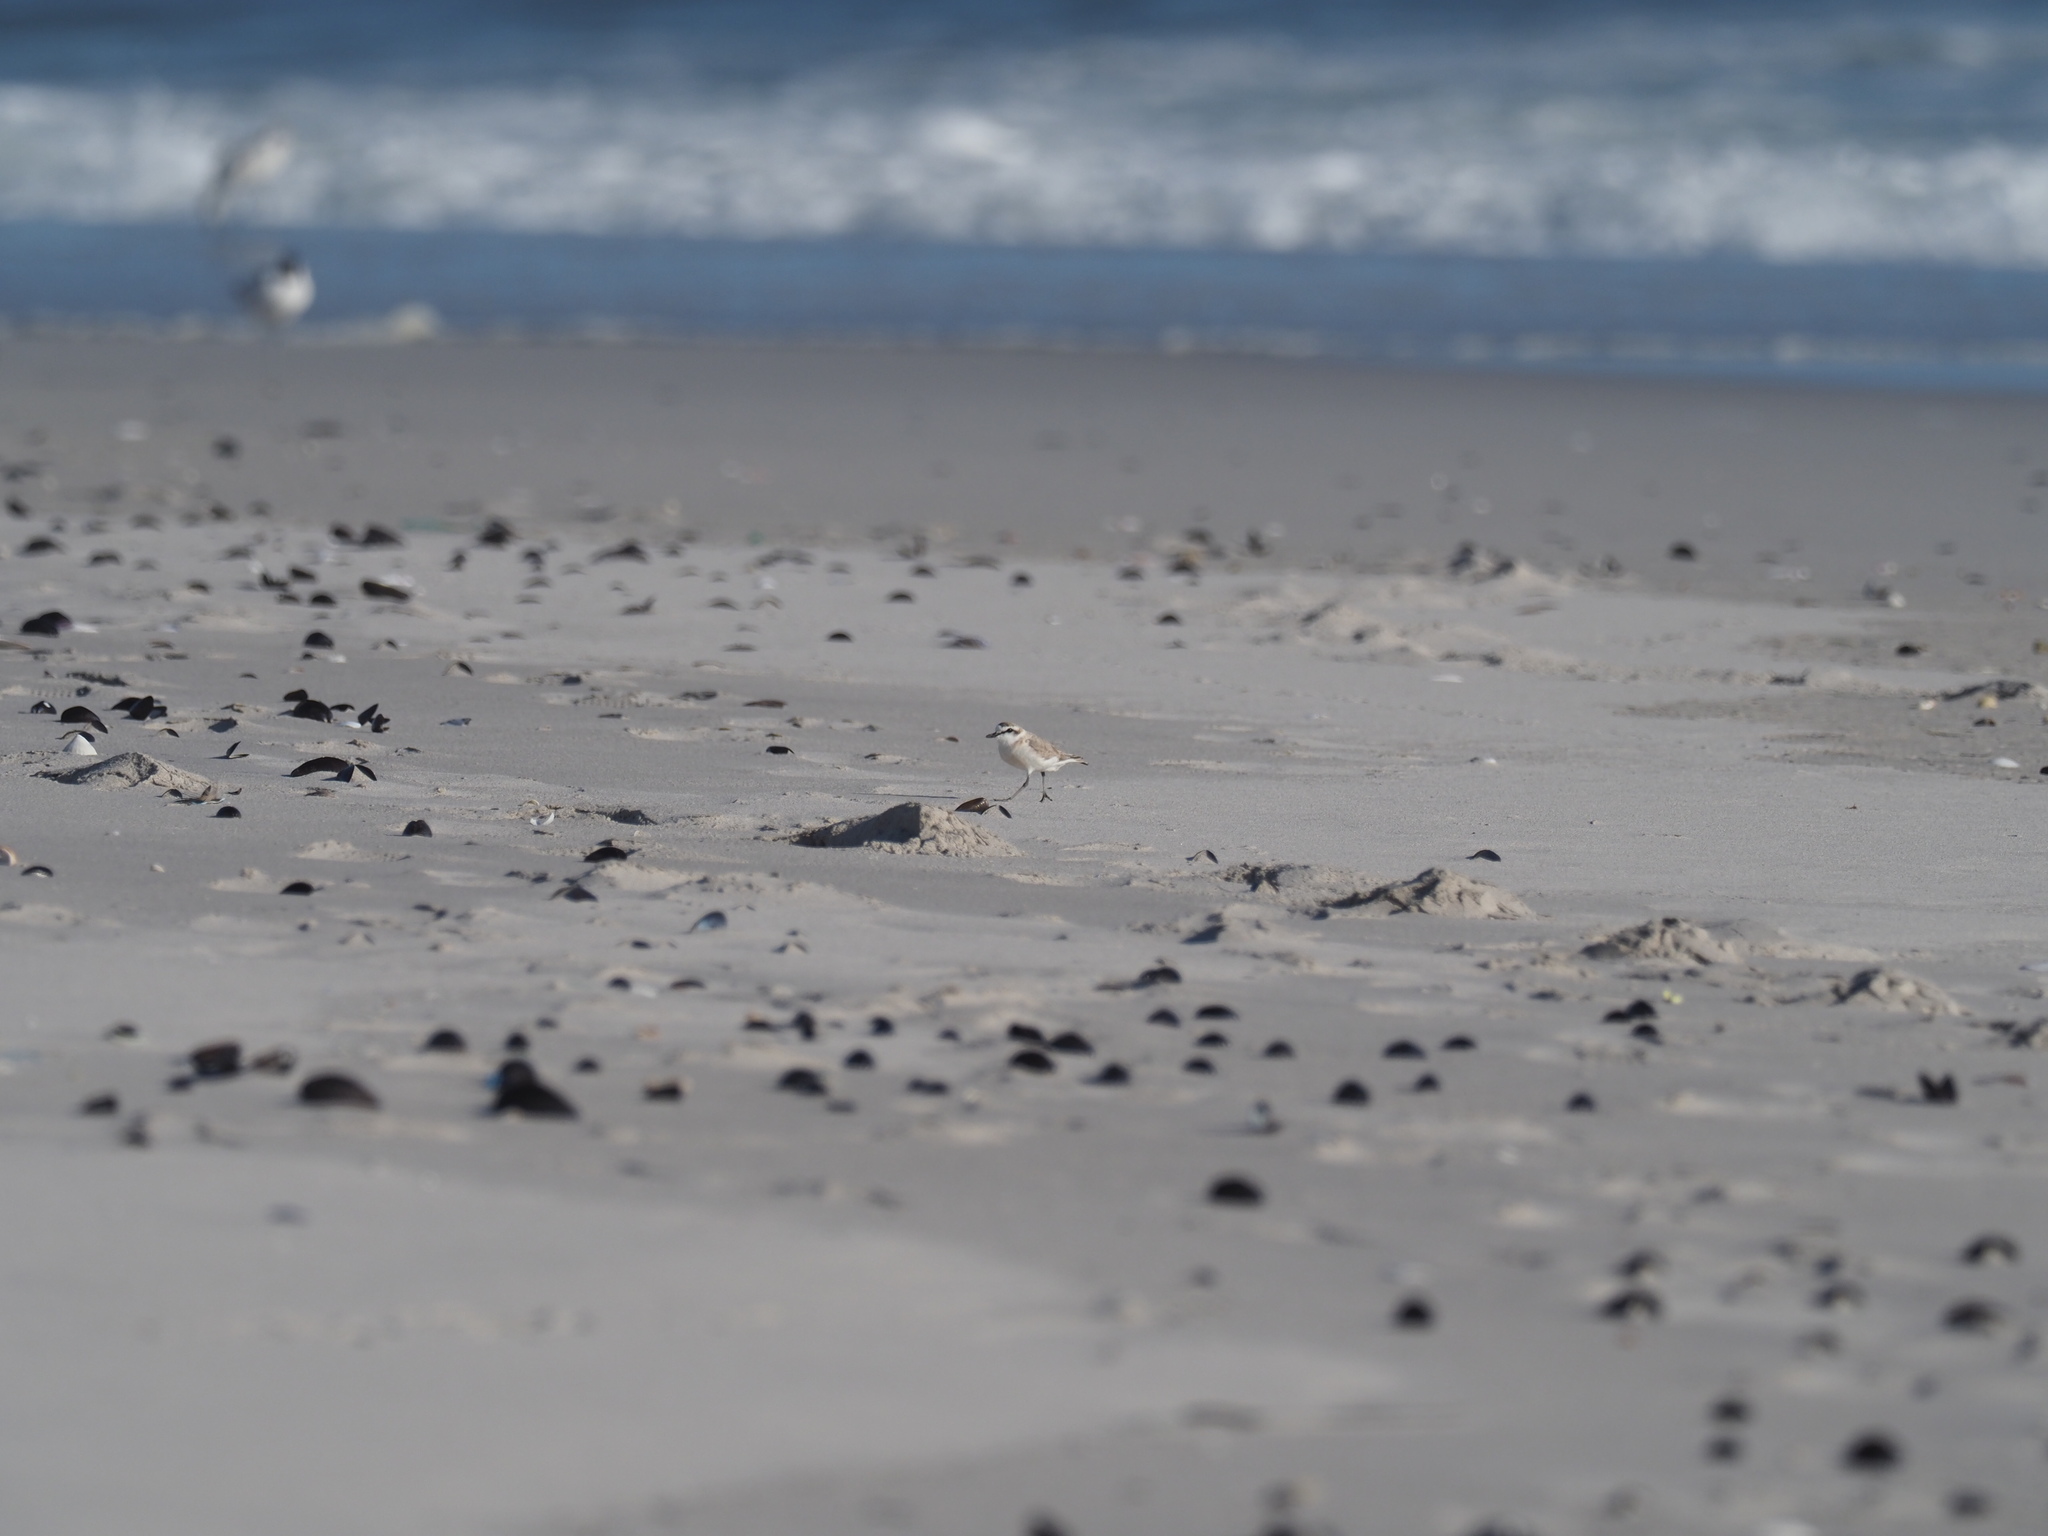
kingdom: Animalia
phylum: Chordata
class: Aves
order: Charadriiformes
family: Charadriidae
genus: Anarhynchus
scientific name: Anarhynchus
